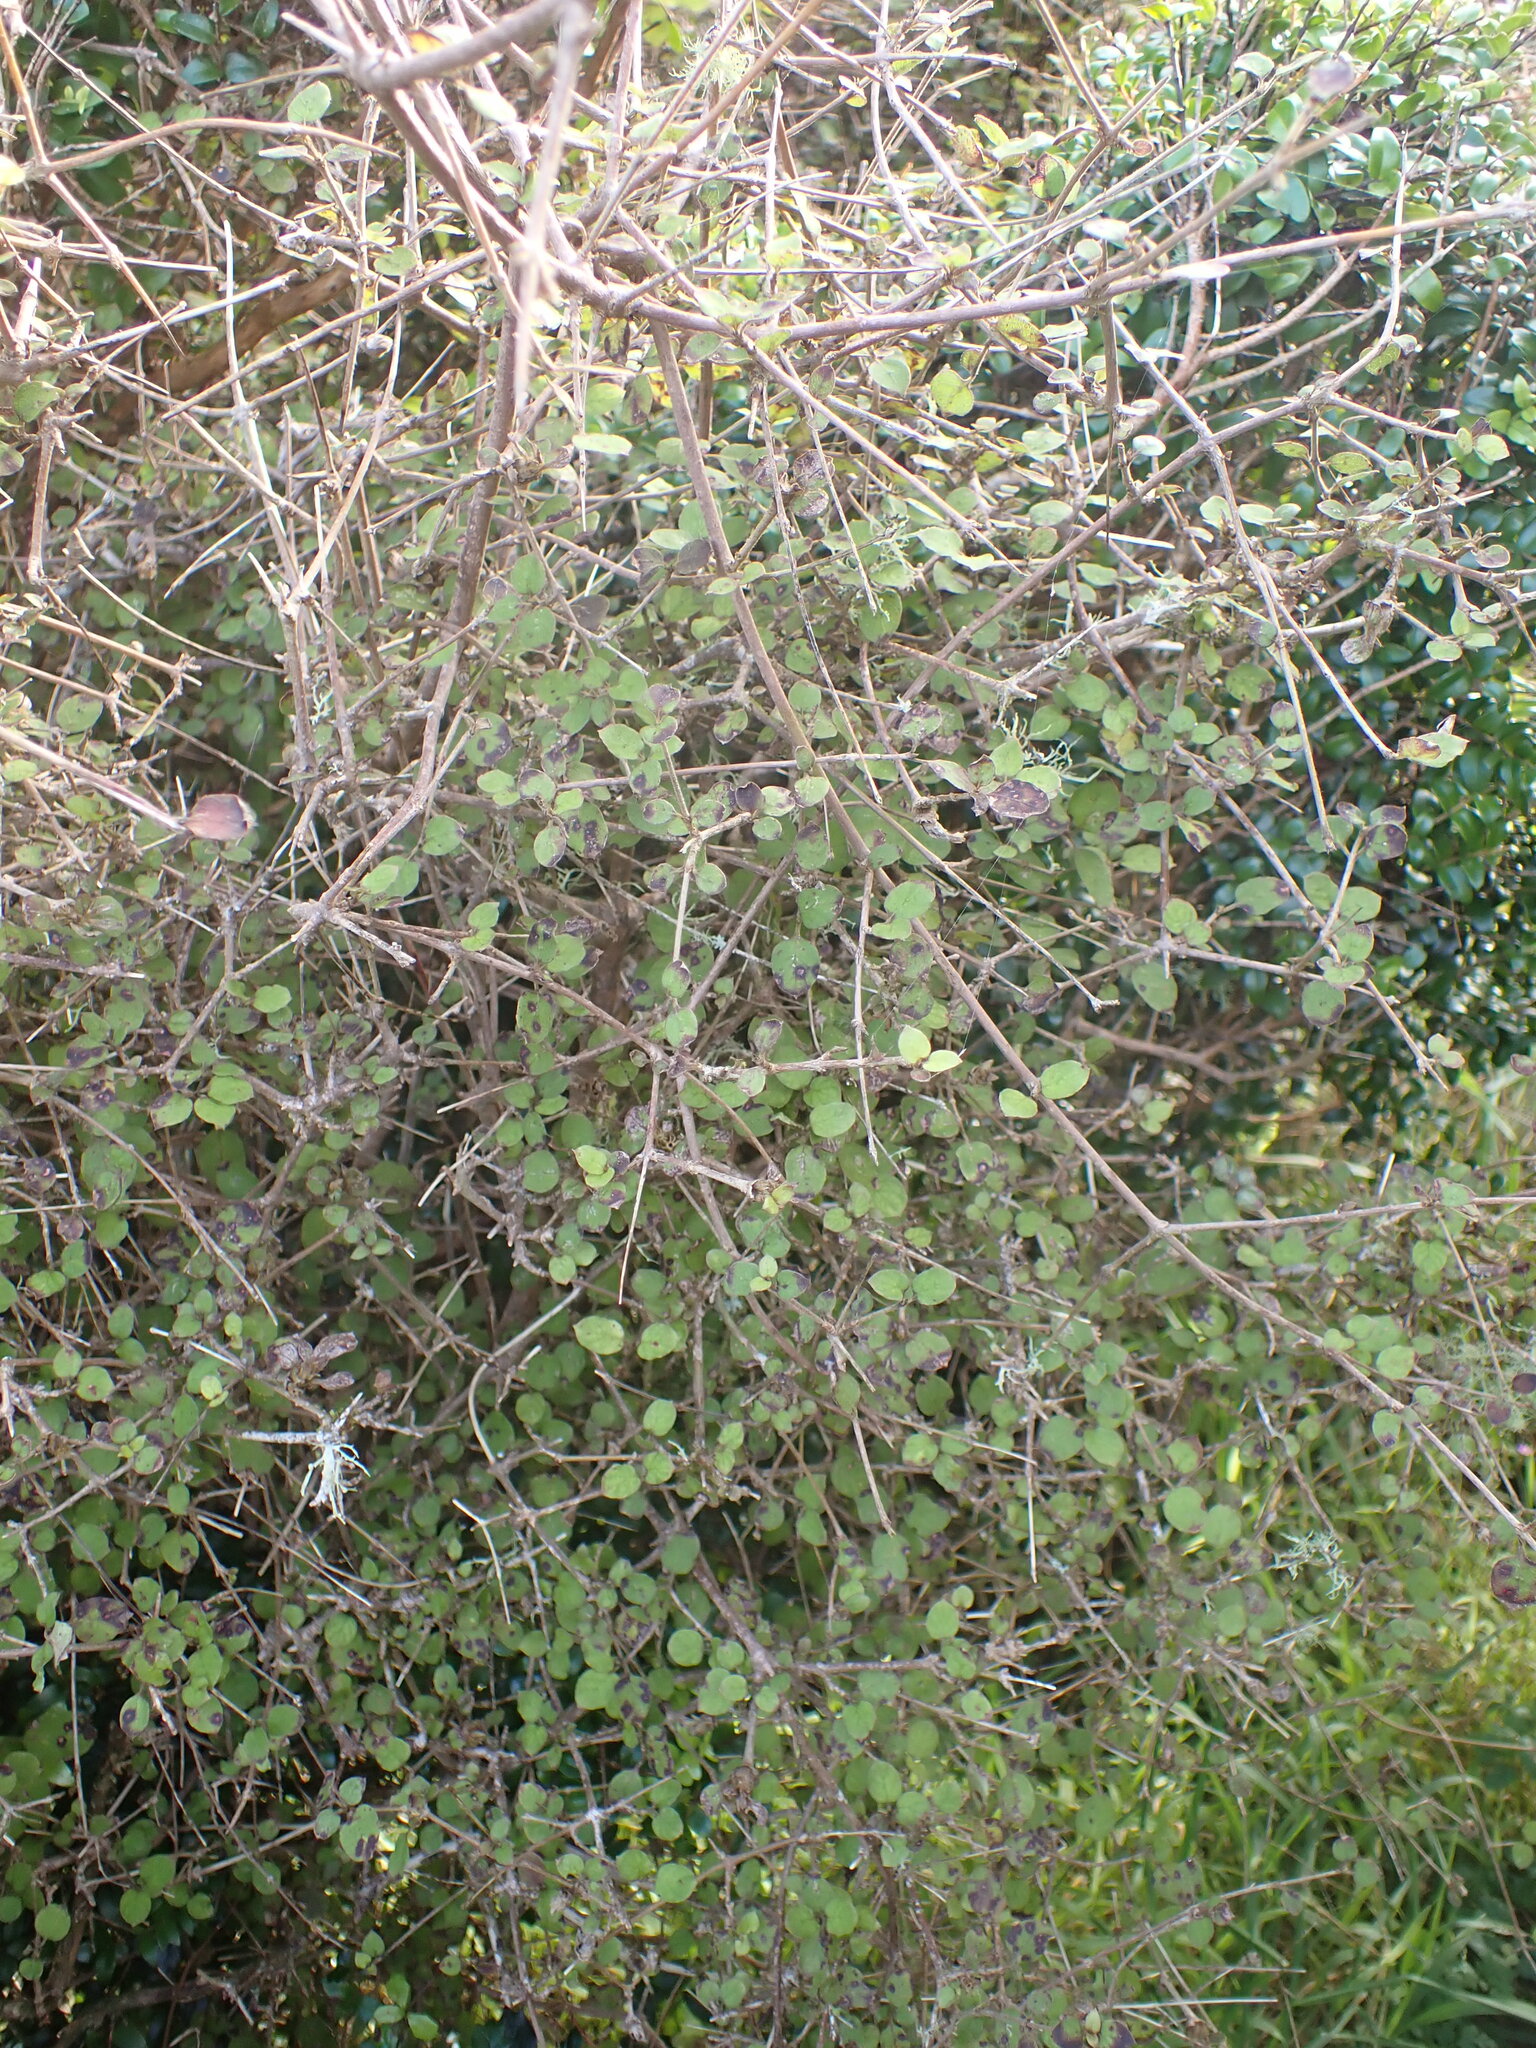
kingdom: Plantae
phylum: Tracheophyta
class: Magnoliopsida
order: Gentianales
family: Rubiaceae
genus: Coprosma
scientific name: Coprosma rotundifolia
